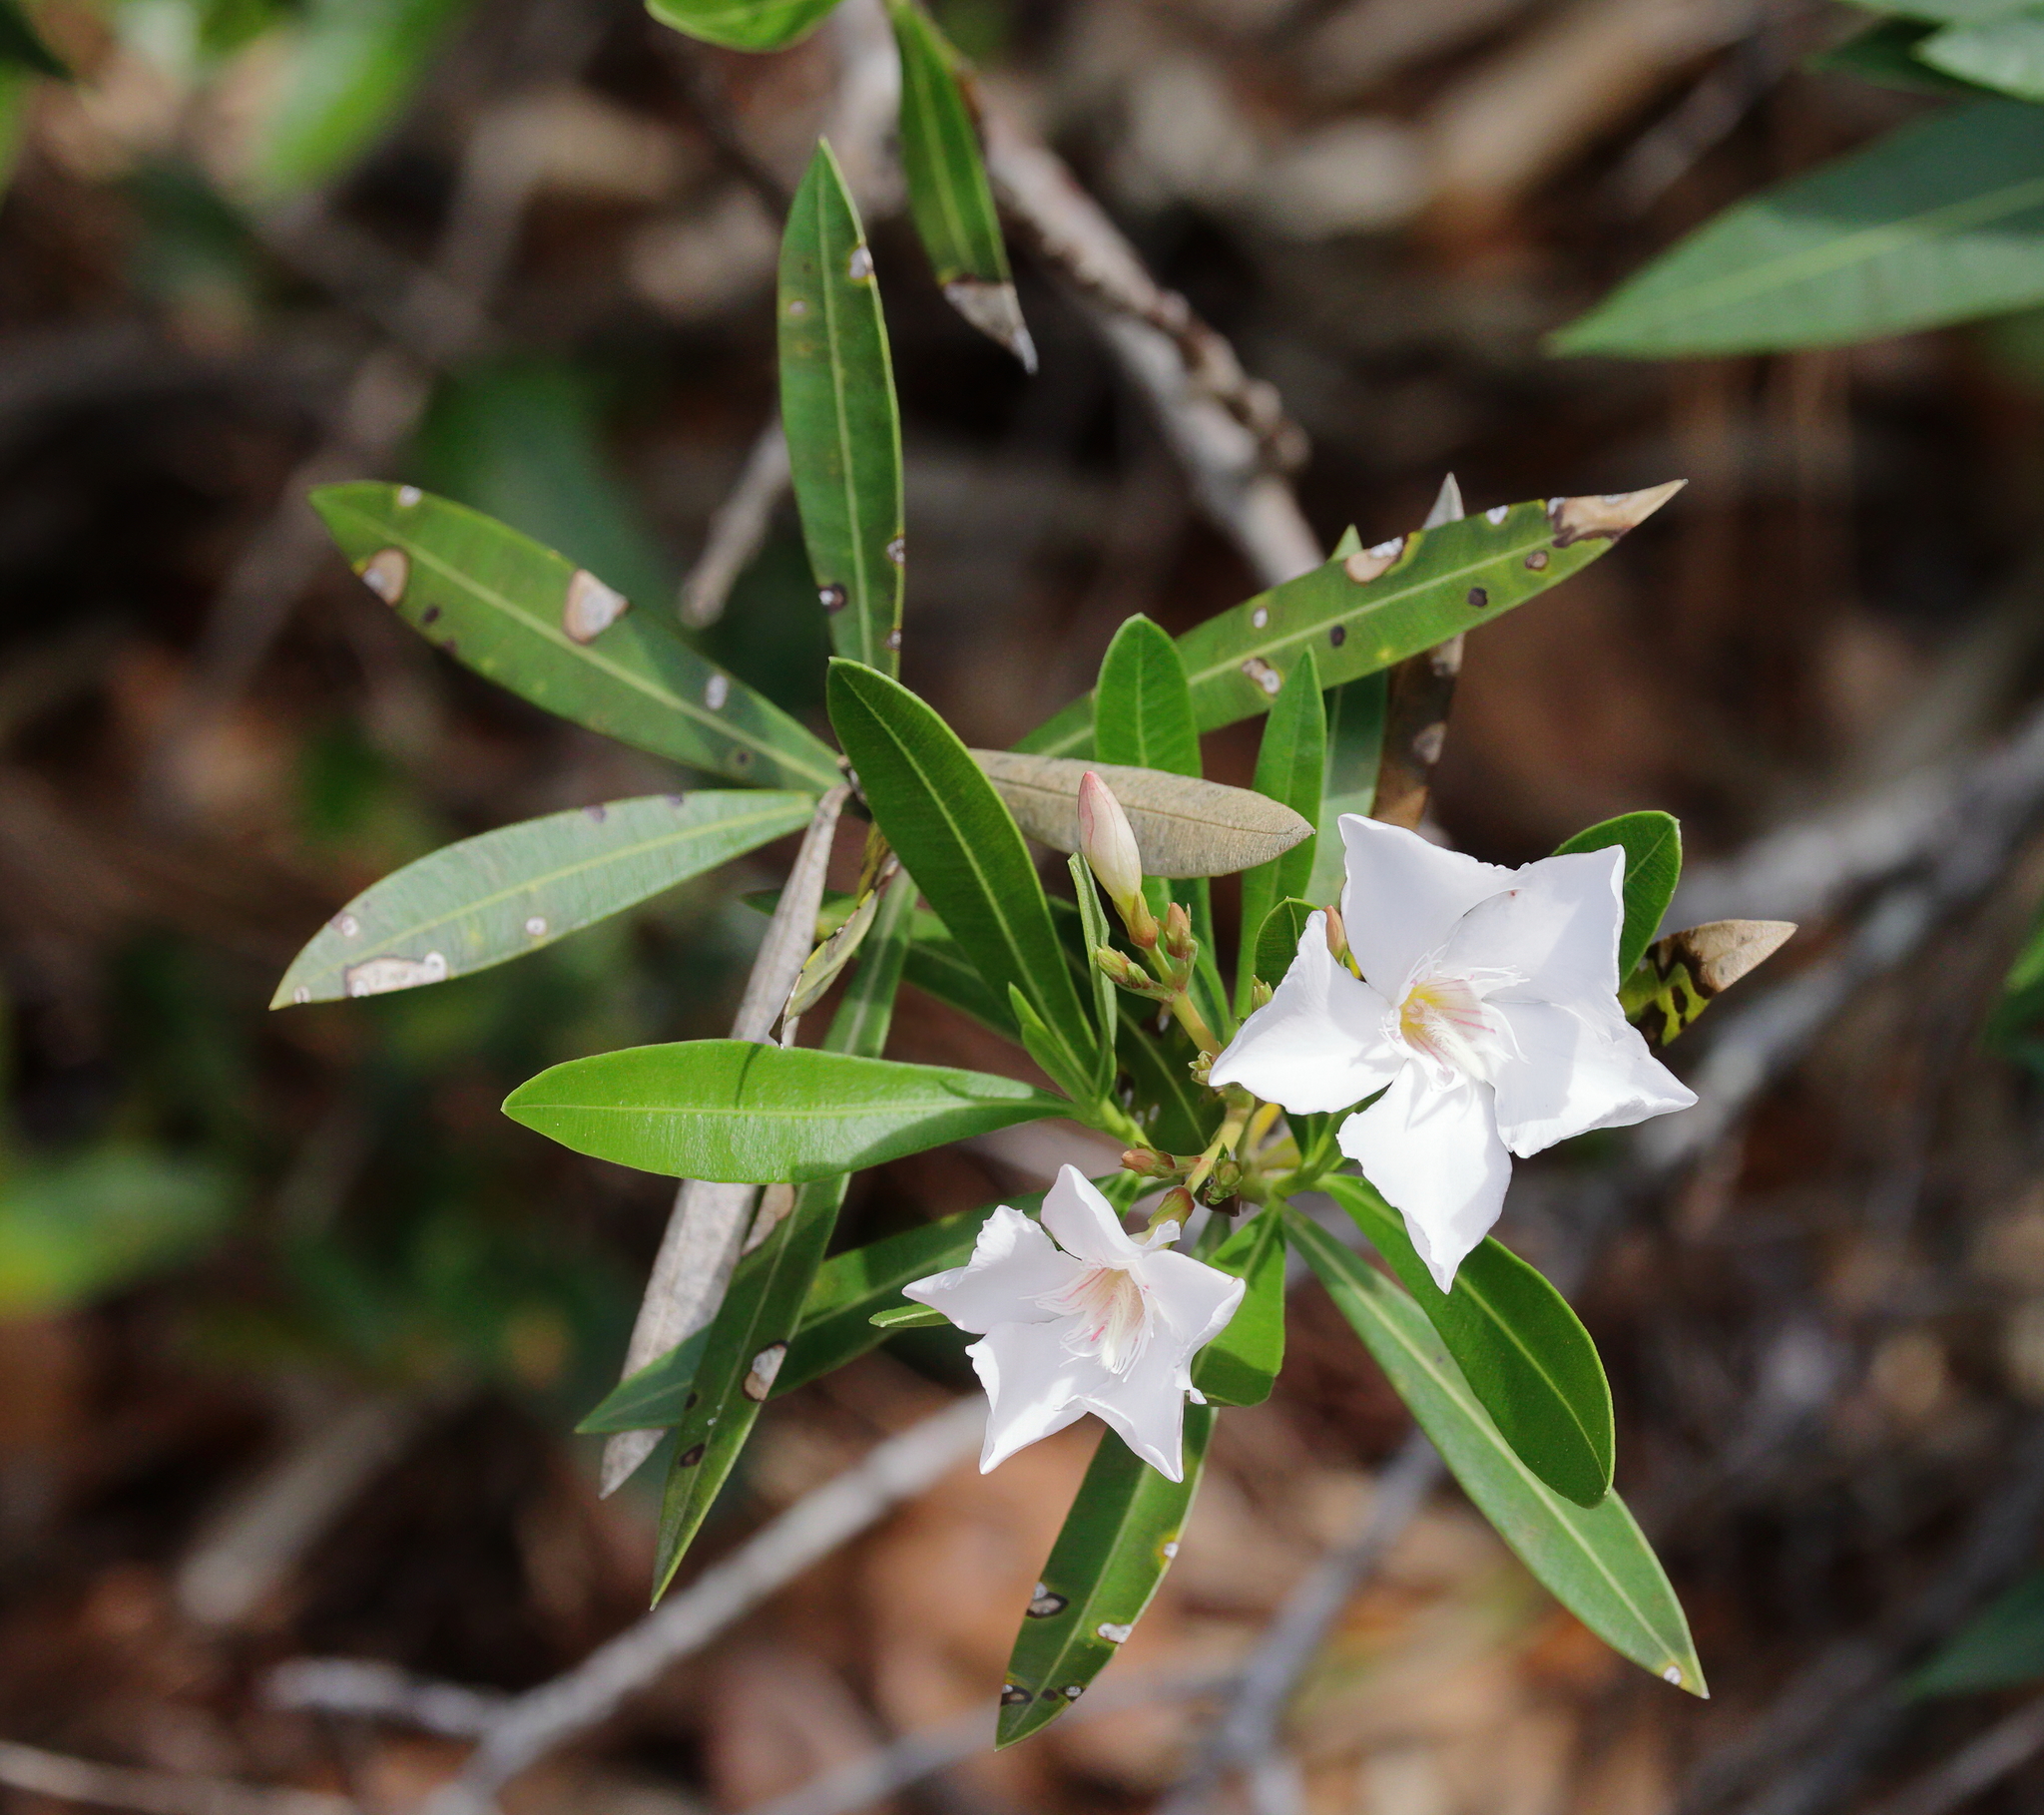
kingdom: Plantae
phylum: Tracheophyta
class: Magnoliopsida
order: Gentianales
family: Apocynaceae
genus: Nerium
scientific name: Nerium oleander
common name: Oleander
